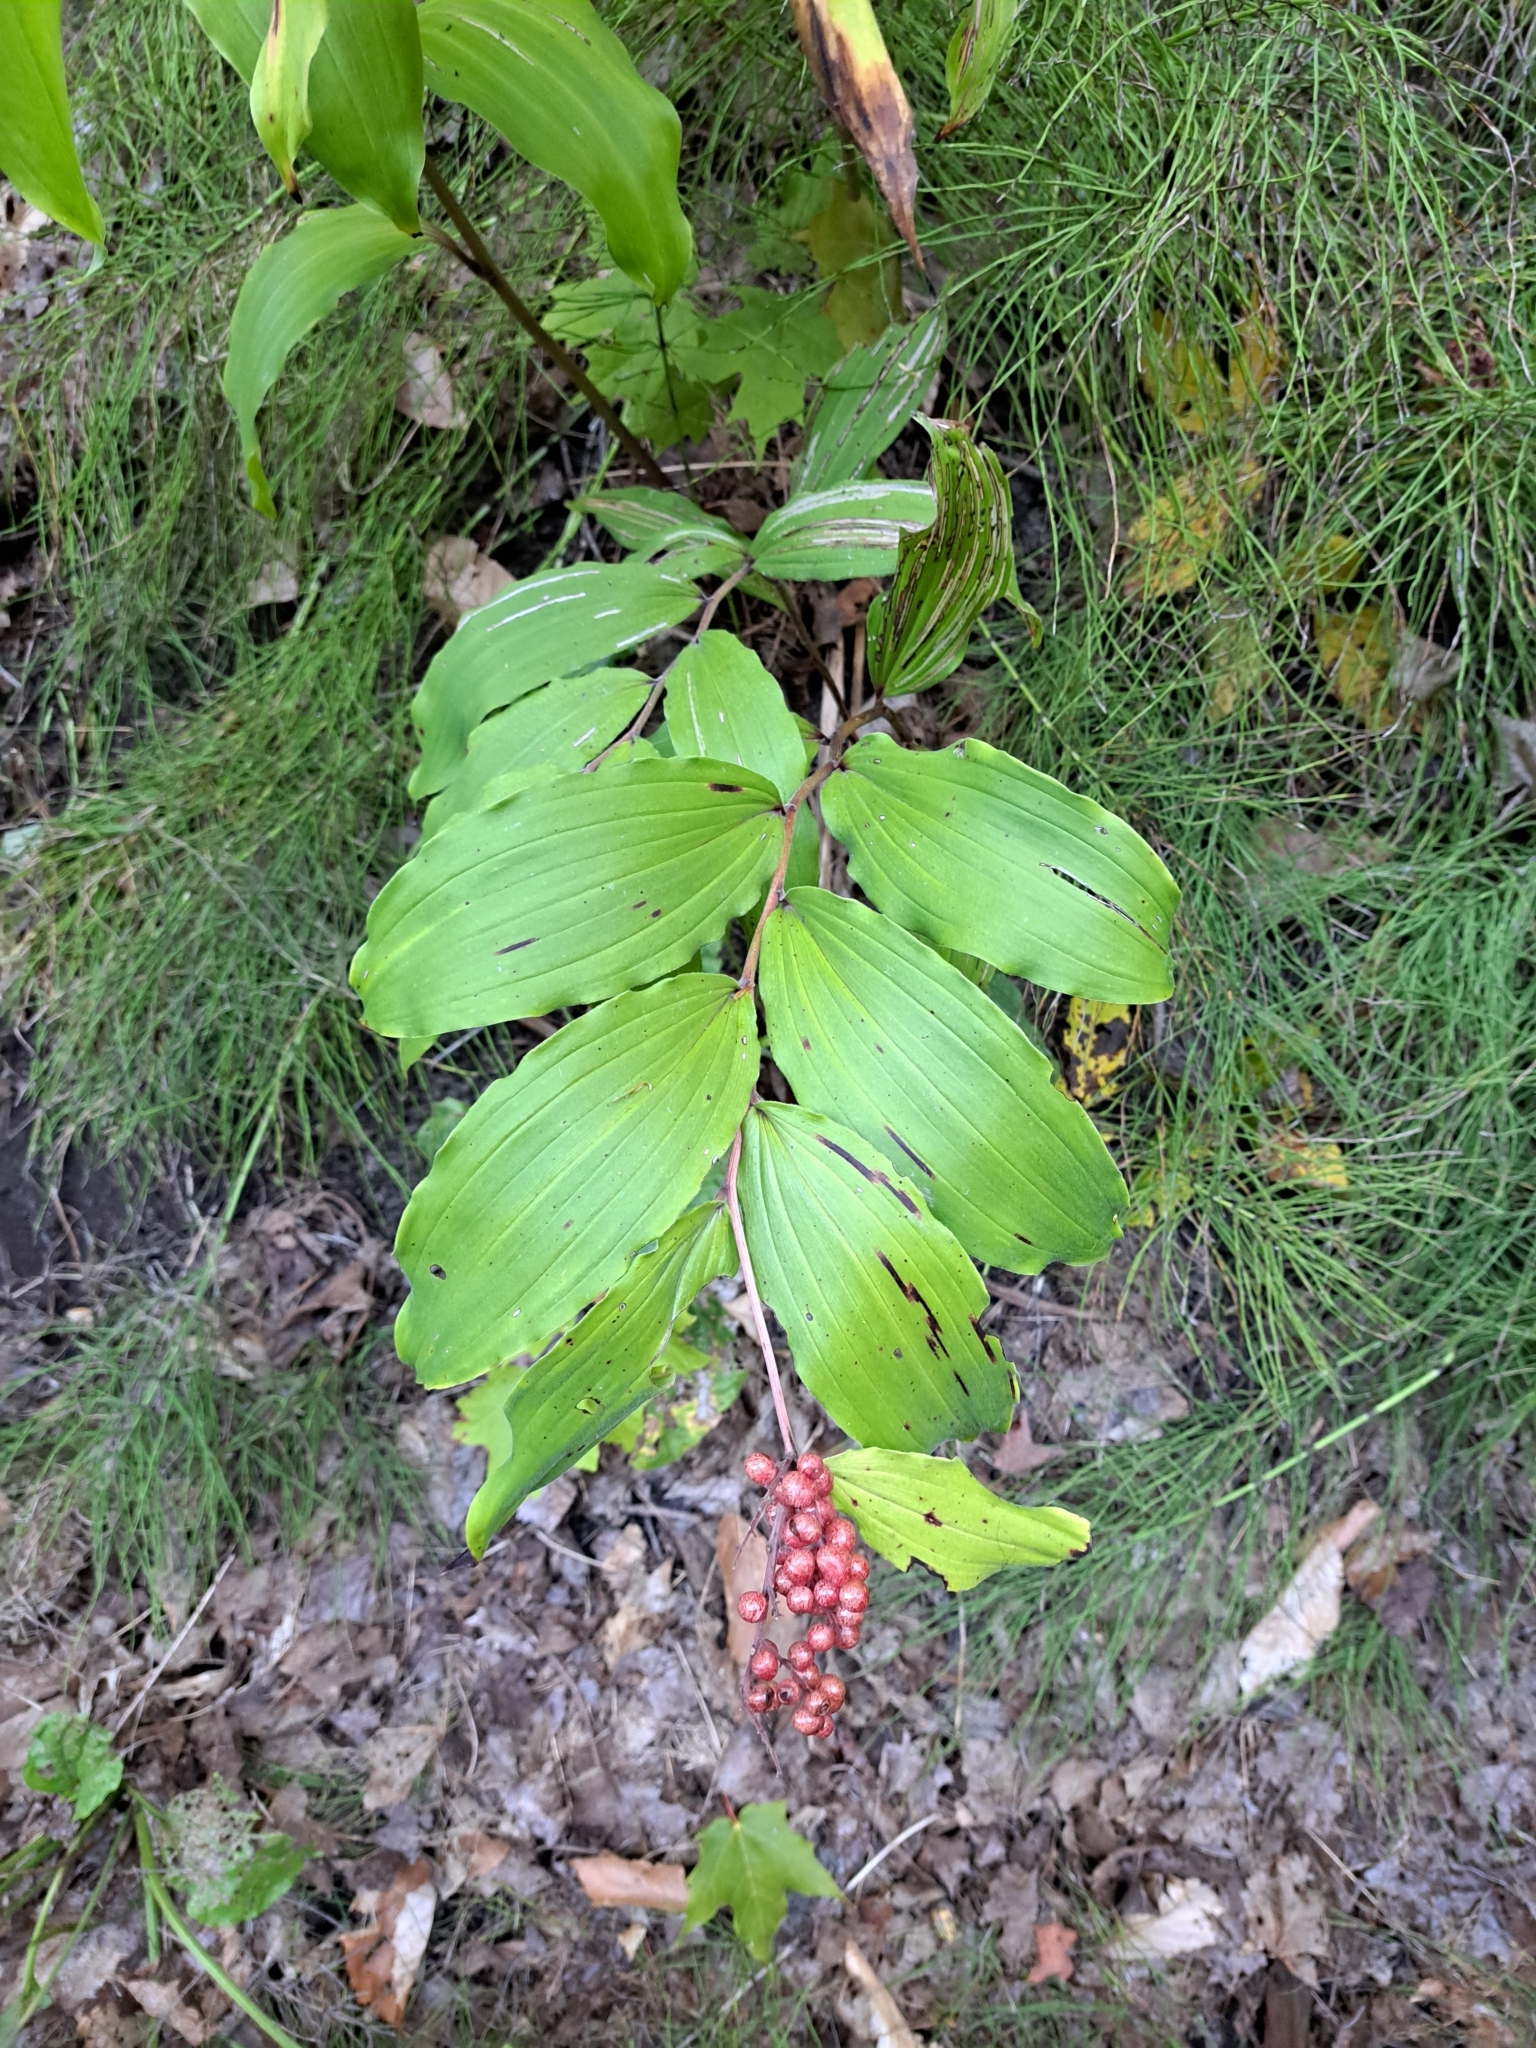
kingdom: Plantae
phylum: Tracheophyta
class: Liliopsida
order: Asparagales
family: Asparagaceae
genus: Maianthemum
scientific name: Maianthemum racemosum
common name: False spikenard
